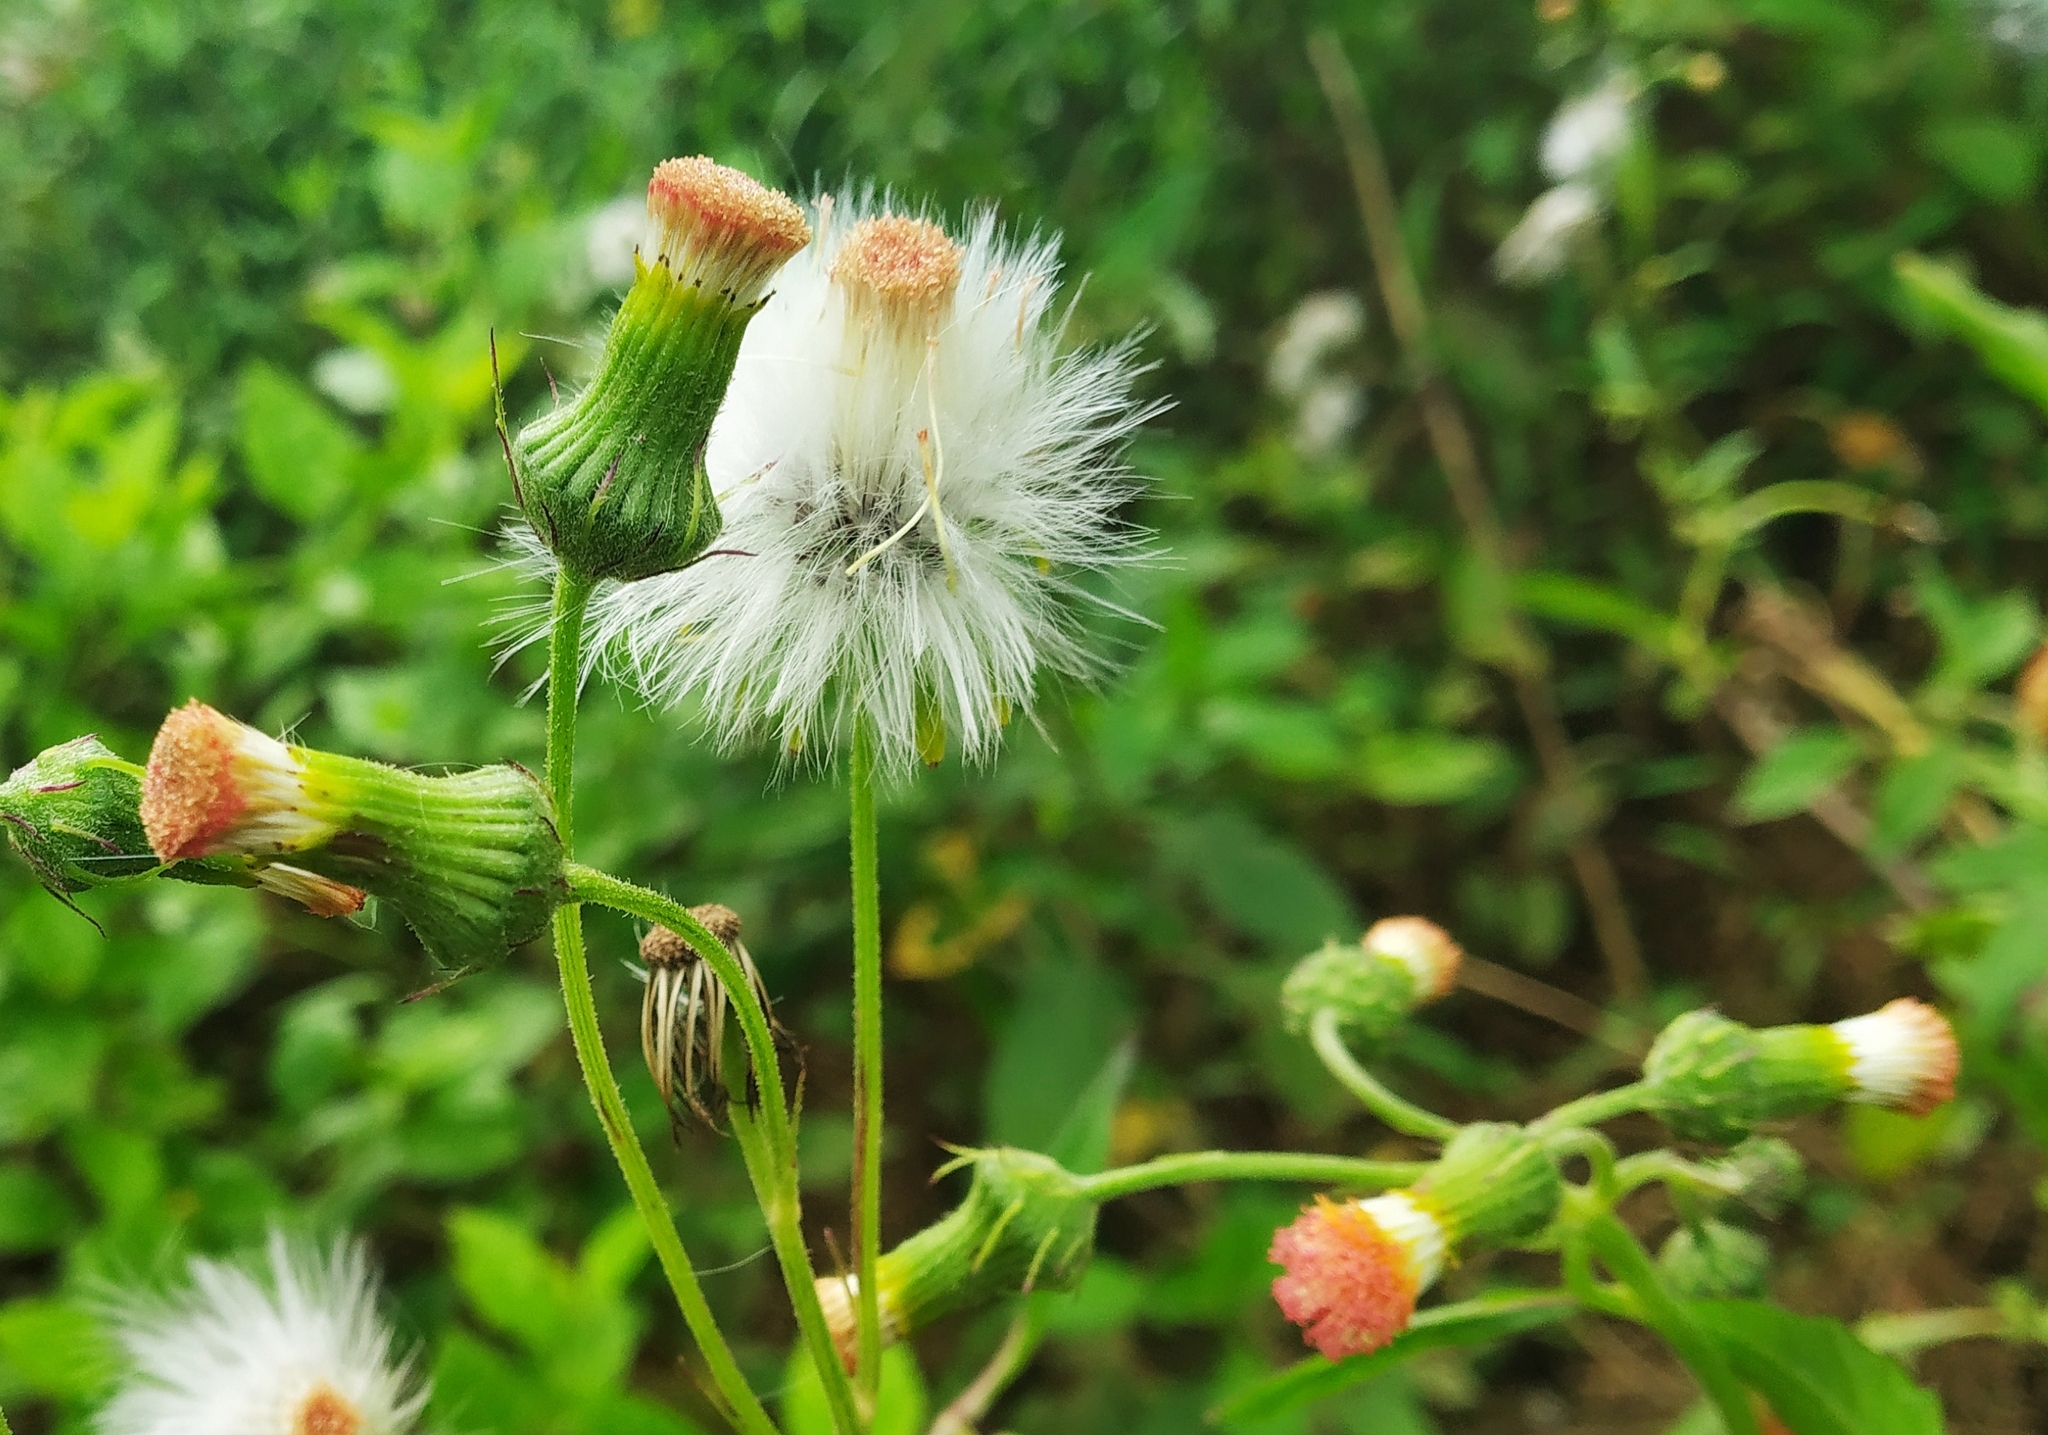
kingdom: Plantae
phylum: Tracheophyta
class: Magnoliopsida
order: Asterales
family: Asteraceae
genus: Crassocephalum
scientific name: Crassocephalum crepidioides
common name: Redflower ragleaf
